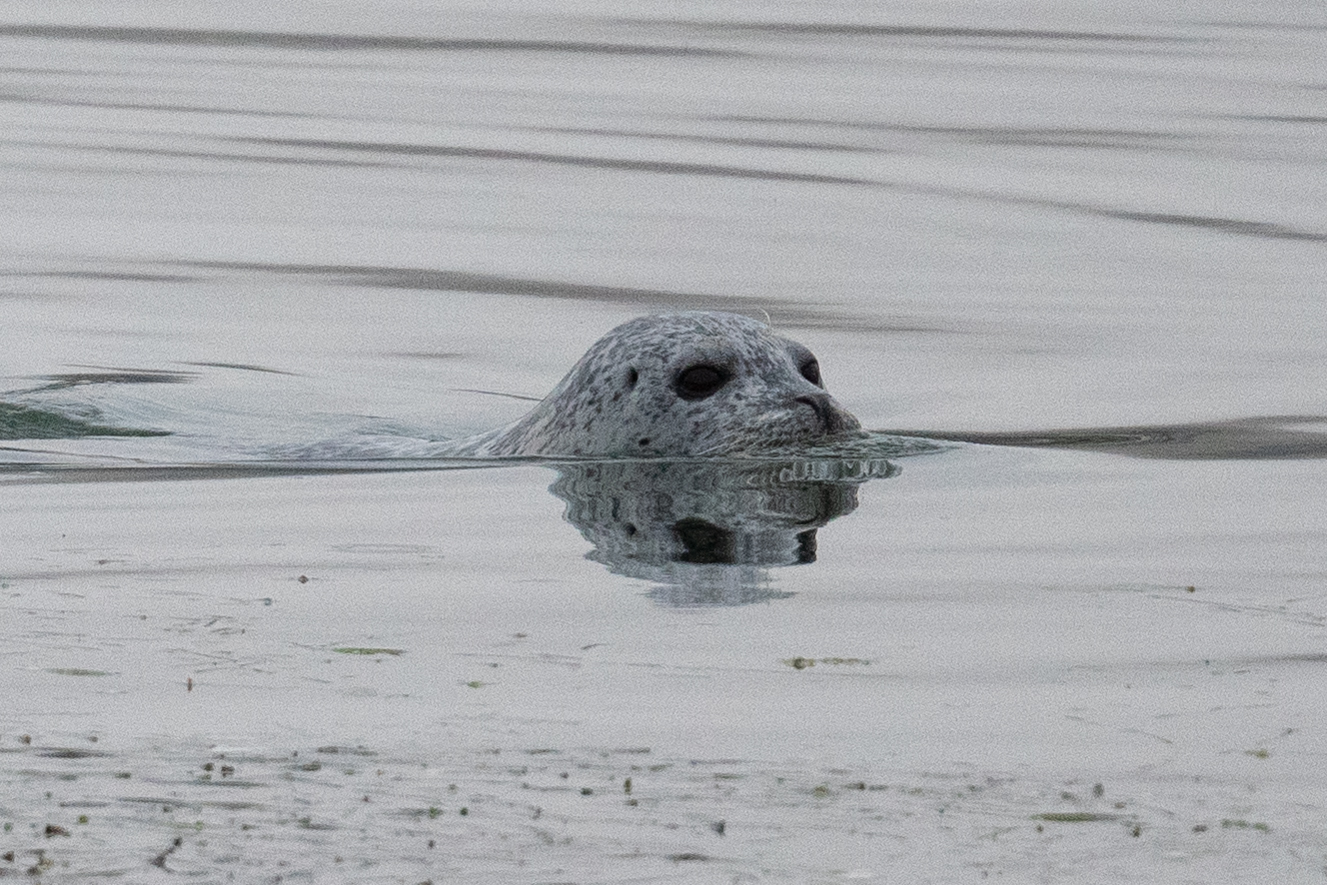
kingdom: Animalia
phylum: Chordata
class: Mammalia
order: Carnivora
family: Phocidae
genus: Phoca
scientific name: Phoca vitulina
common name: Harbor seal
